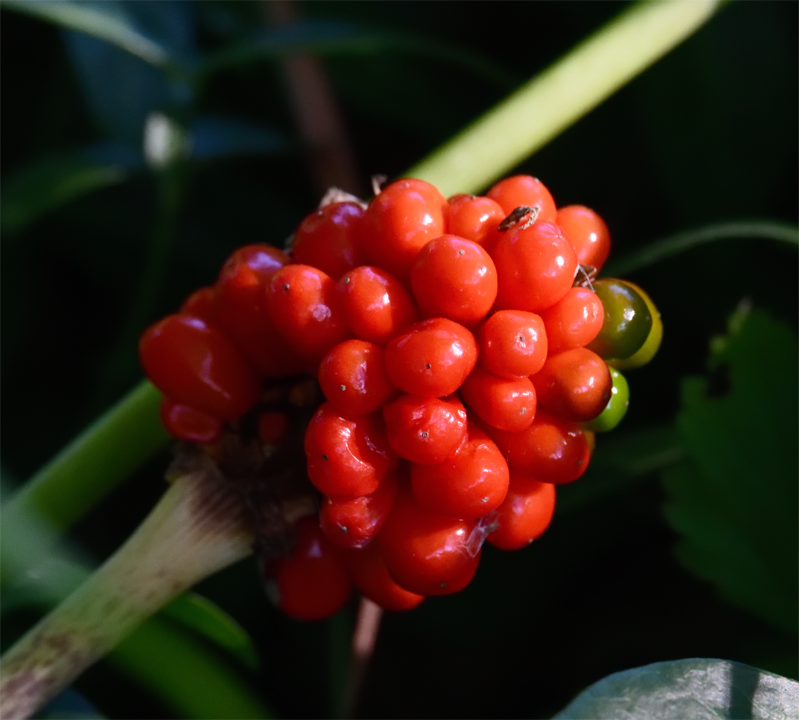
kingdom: Plantae
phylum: Tracheophyta
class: Liliopsida
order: Alismatales
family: Araceae
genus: Arisaema
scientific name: Arisaema triphyllum
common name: Jack-in-the-pulpit
